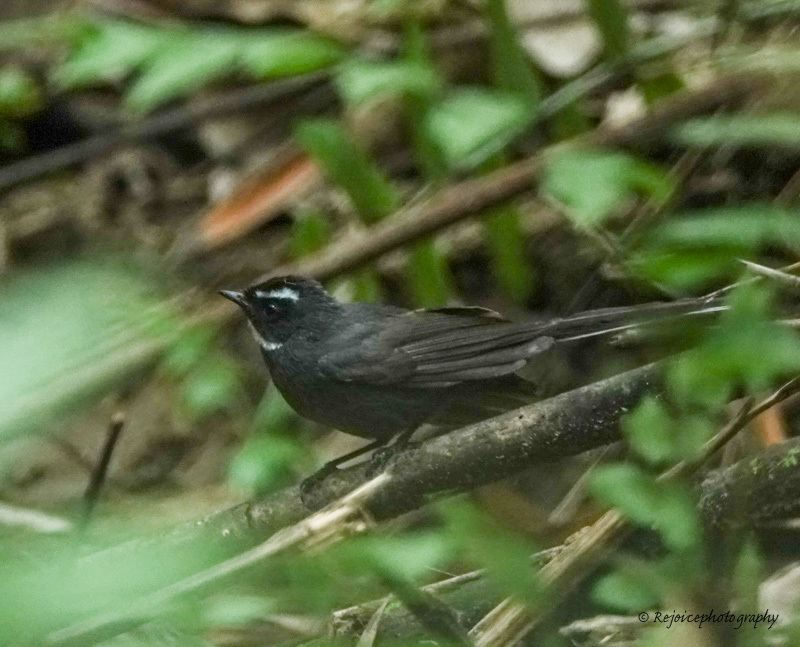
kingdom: Animalia
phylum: Chordata
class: Aves
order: Passeriformes
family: Rhipiduridae
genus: Rhipidura
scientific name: Rhipidura albicollis
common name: White-throated fantail
